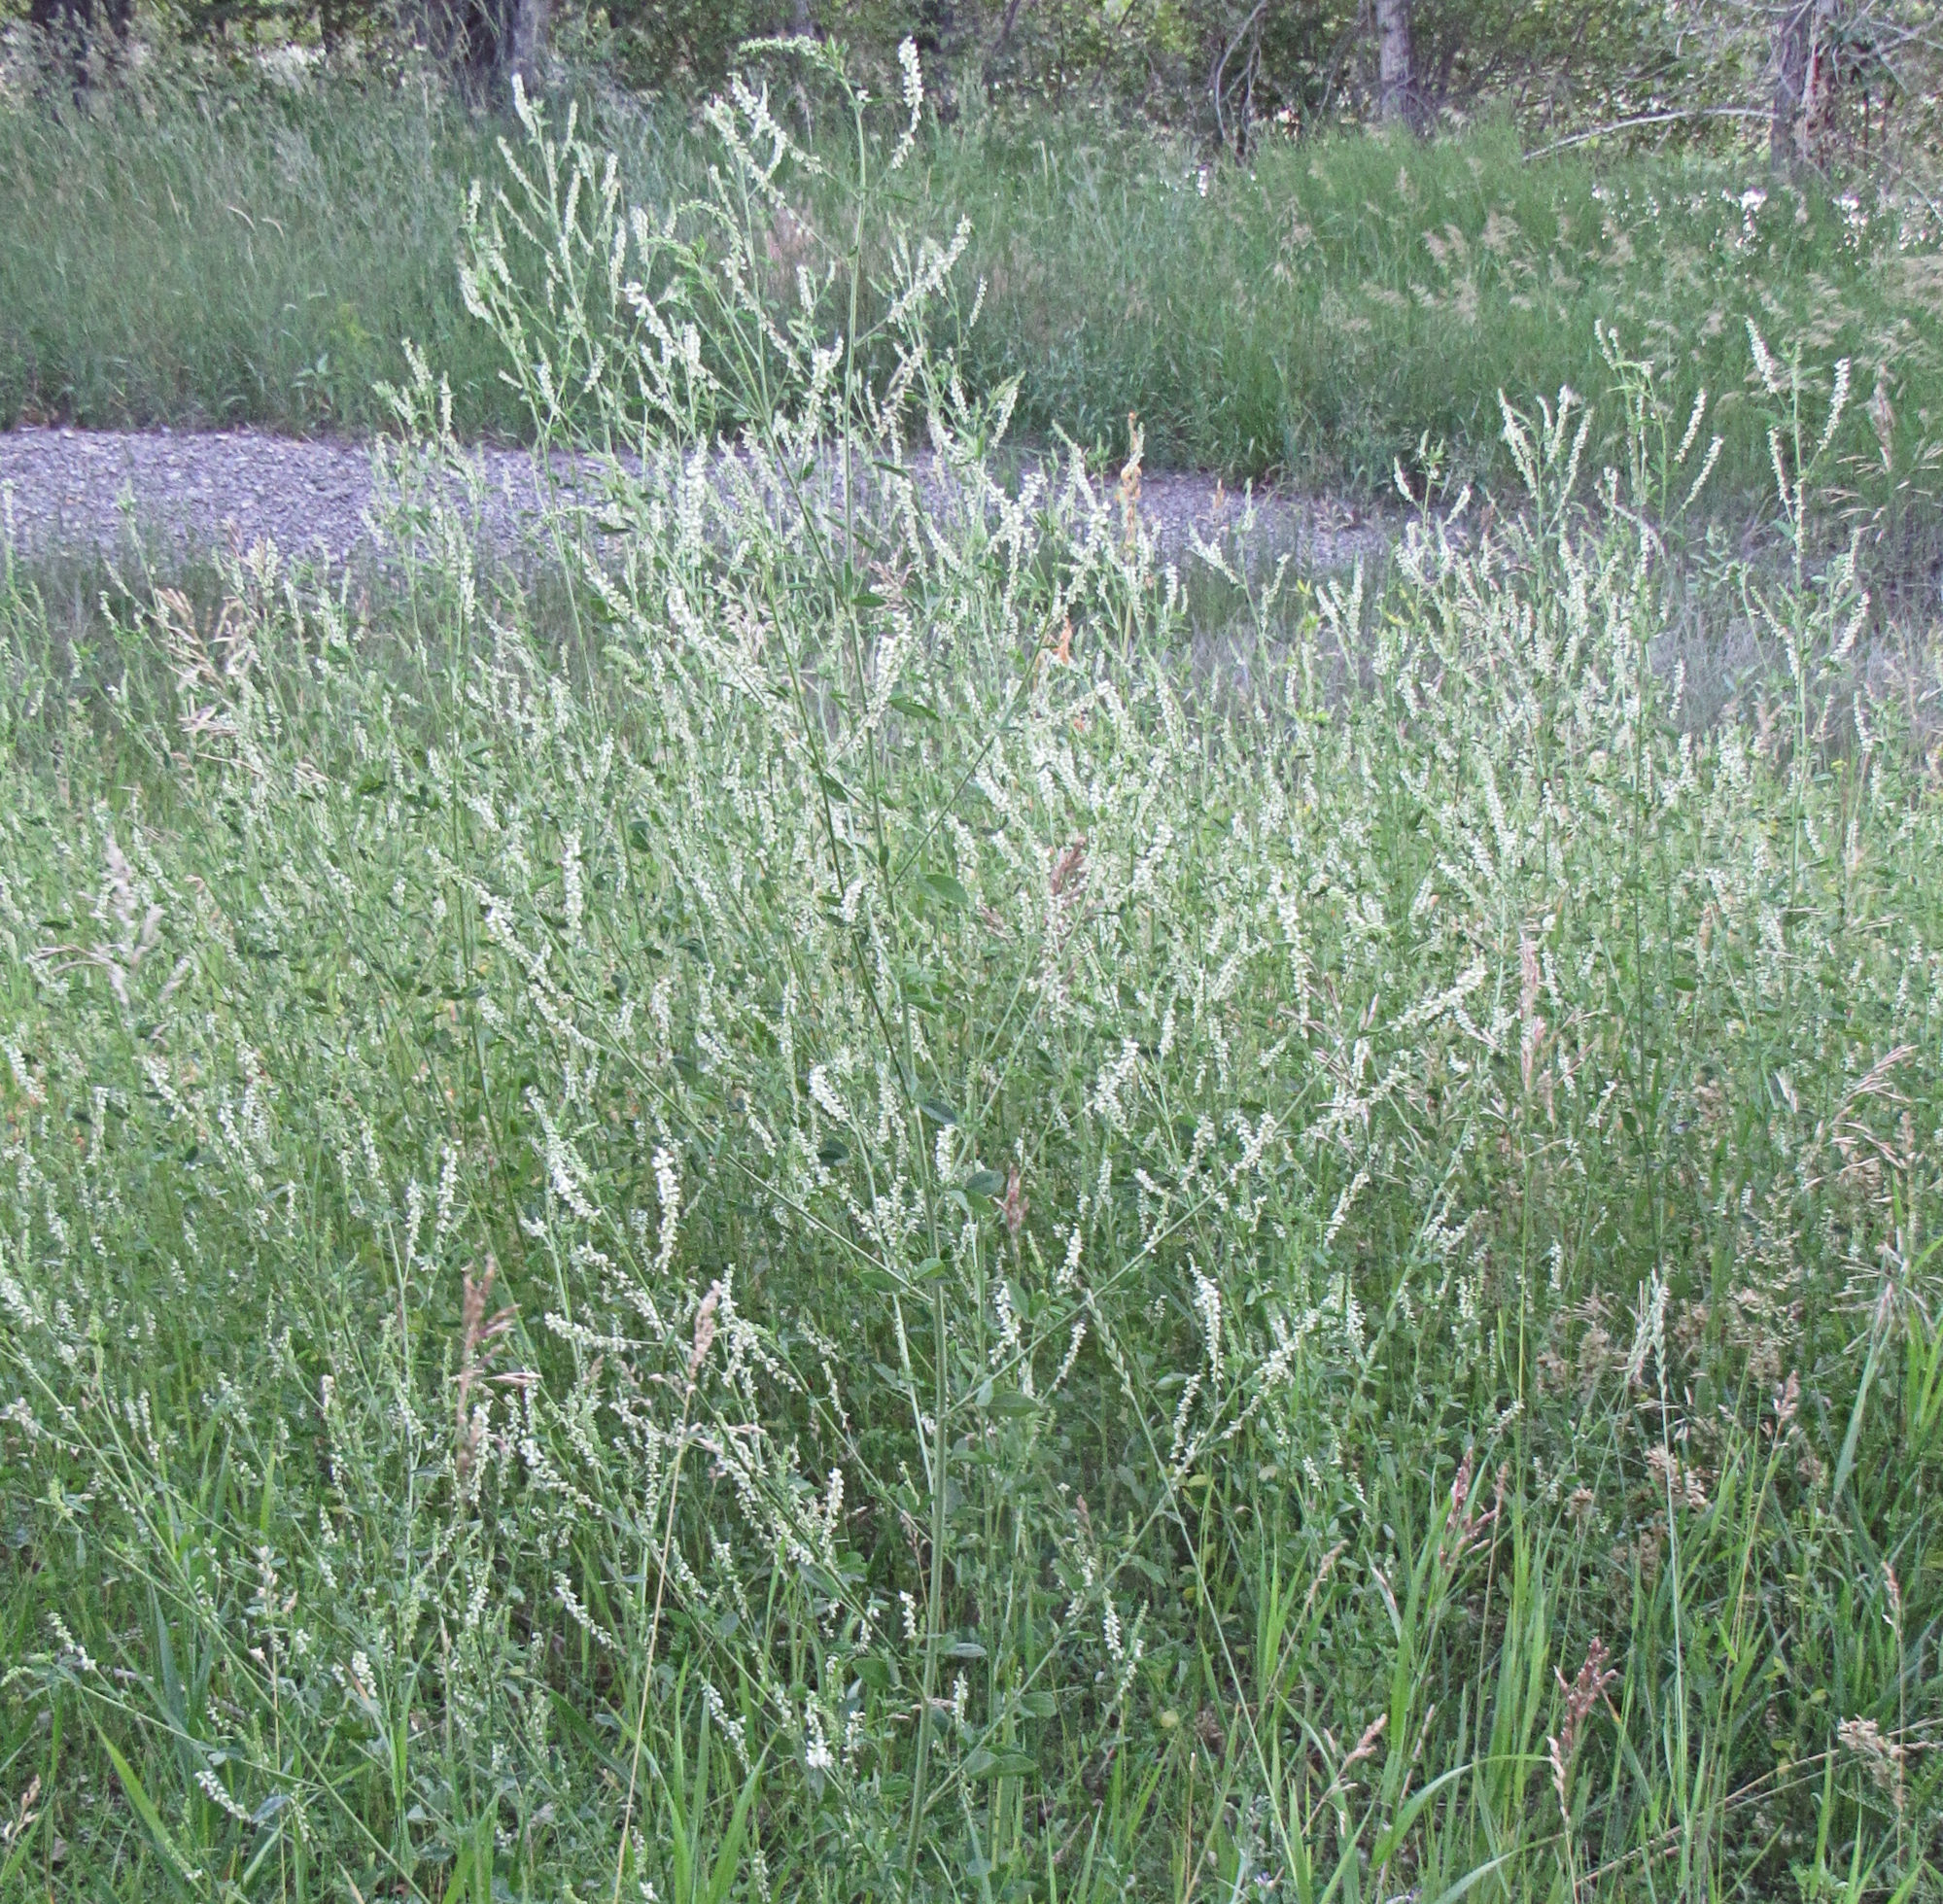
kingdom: Plantae
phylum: Tracheophyta
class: Magnoliopsida
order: Fabales
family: Fabaceae
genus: Melilotus
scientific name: Melilotus albus
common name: White melilot
